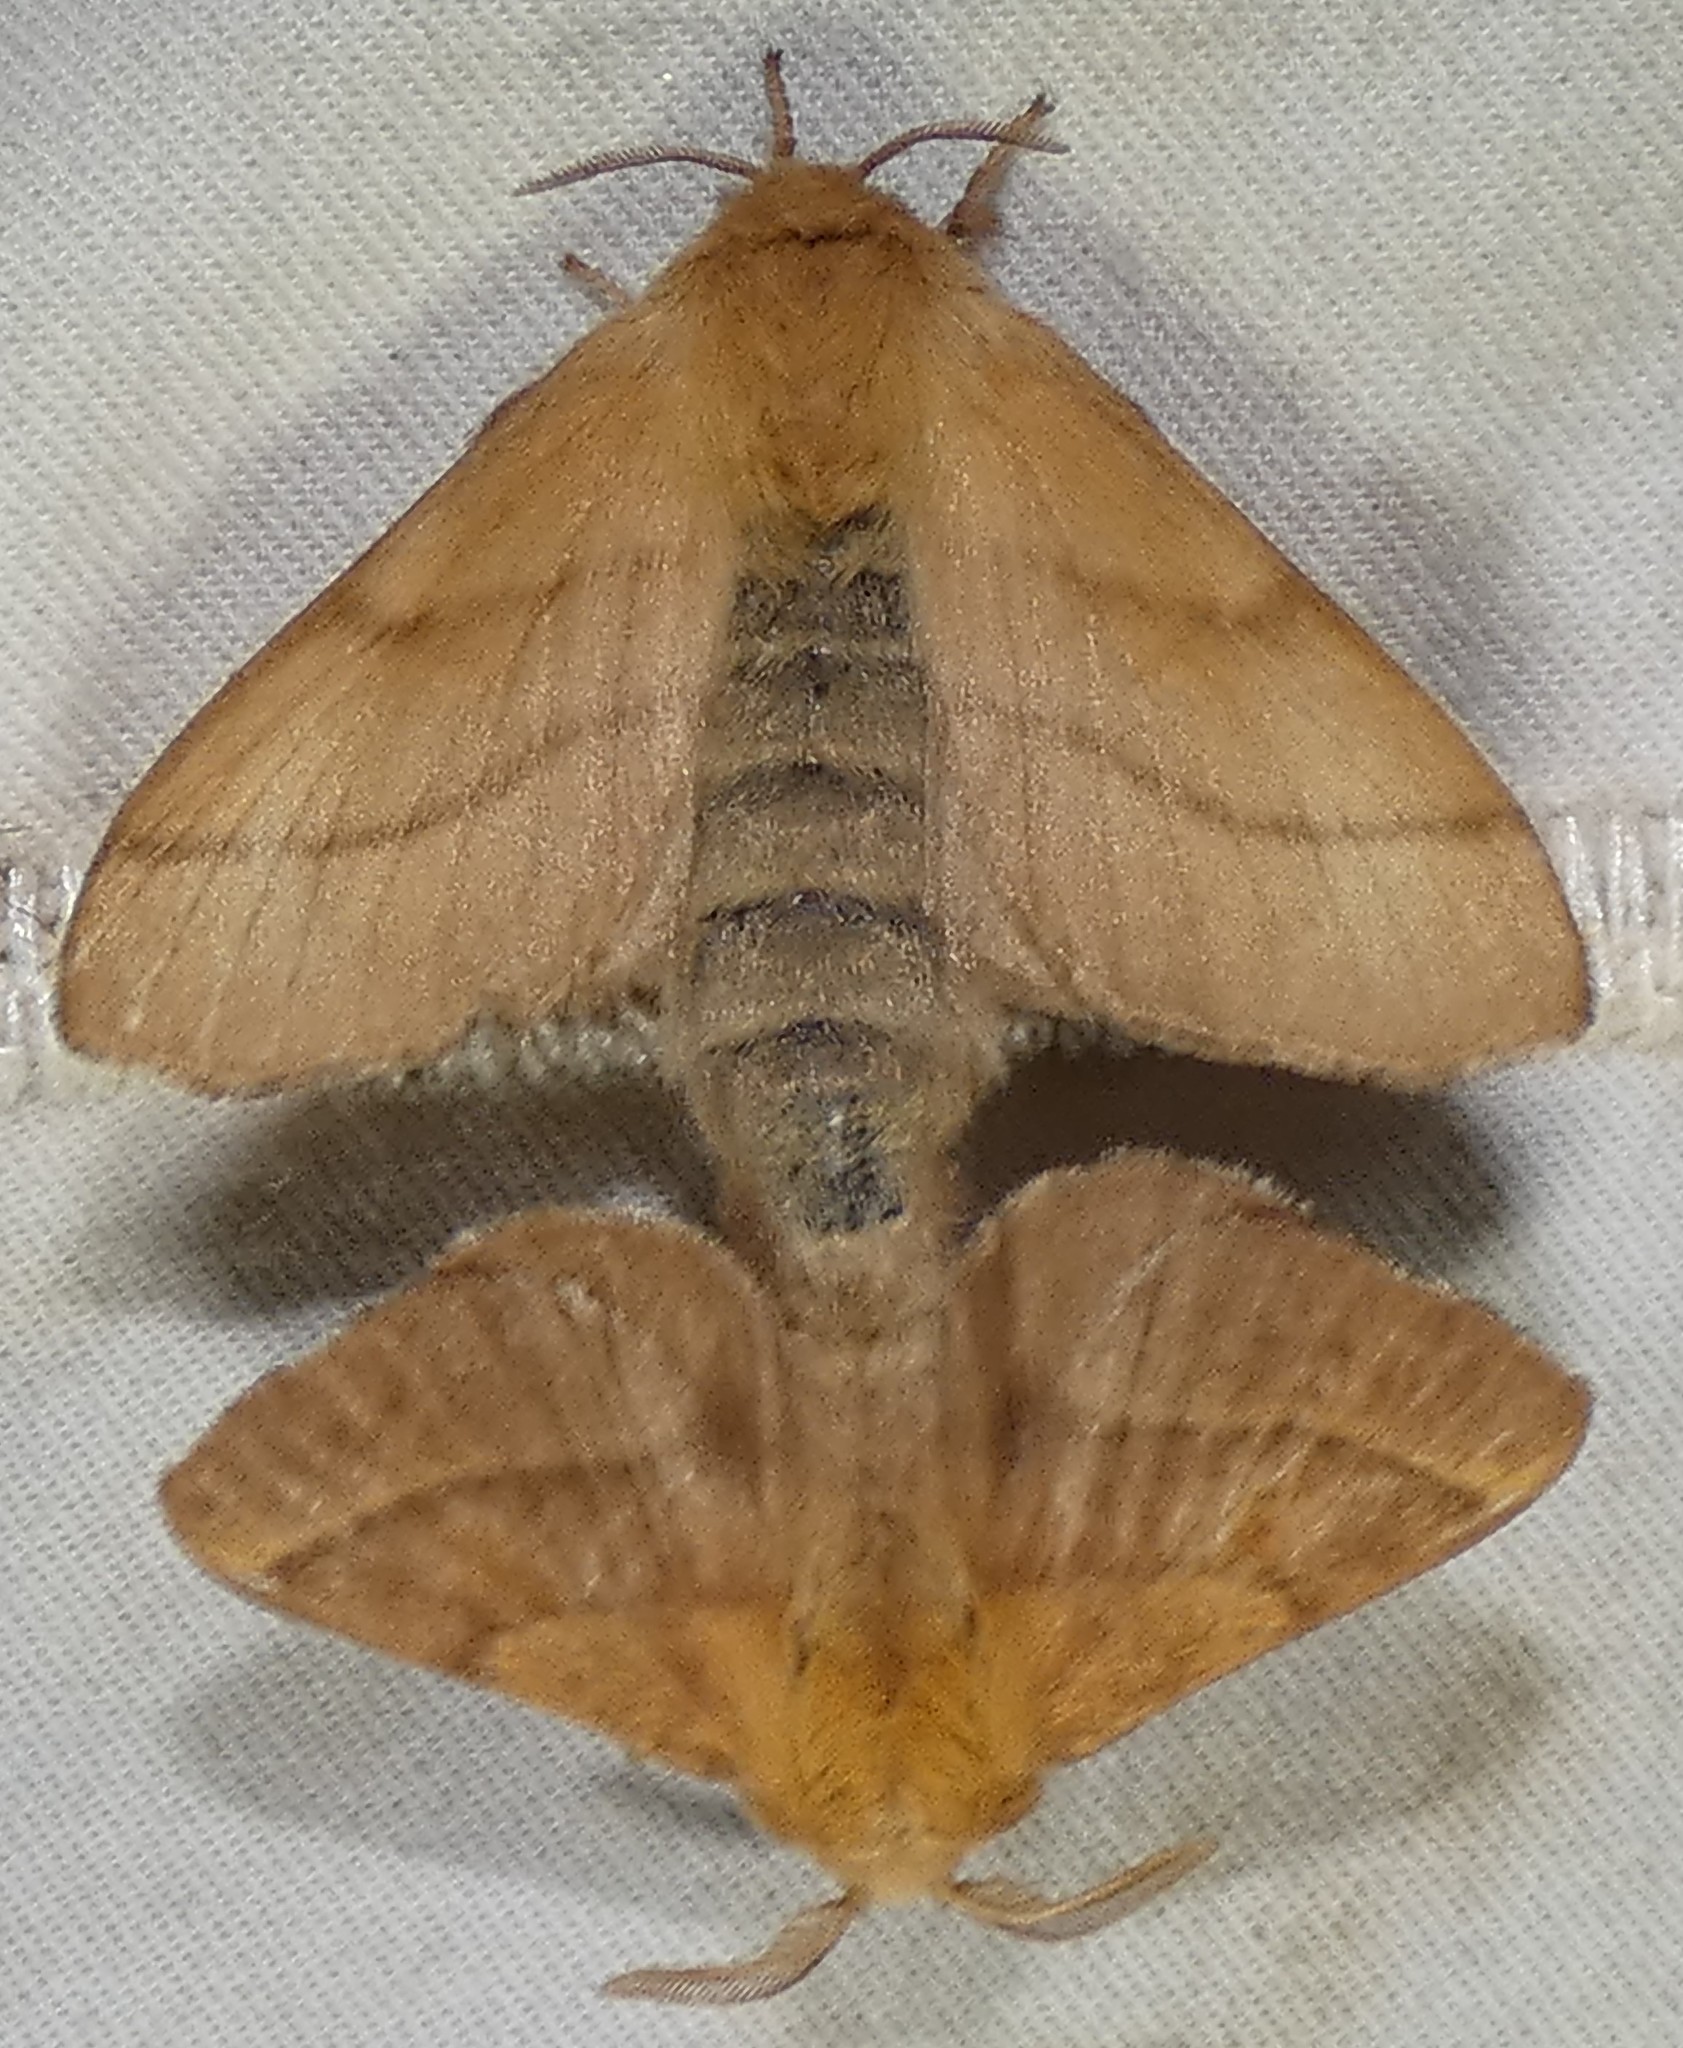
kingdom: Animalia
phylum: Arthropoda
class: Insecta
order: Lepidoptera
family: Lasiocampidae
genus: Malacosoma
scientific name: Malacosoma disstria
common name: Forest tent caterpillar
